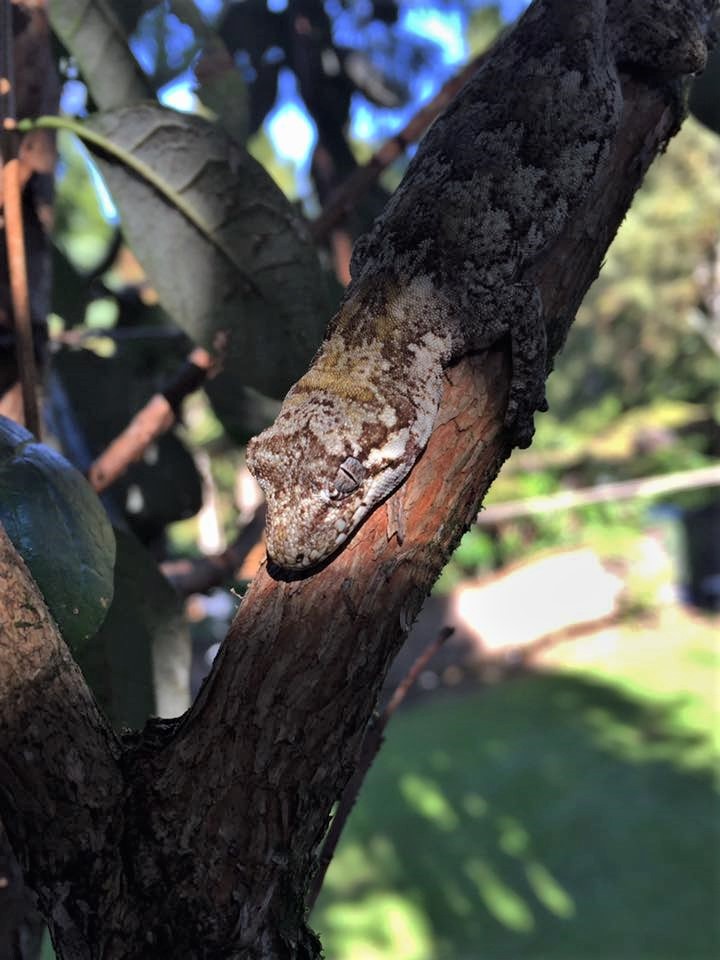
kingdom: Animalia
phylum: Chordata
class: Squamata
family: Diplodactylidae
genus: Mokopirirakau
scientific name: Mokopirirakau granulatus
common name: Forest gecko
